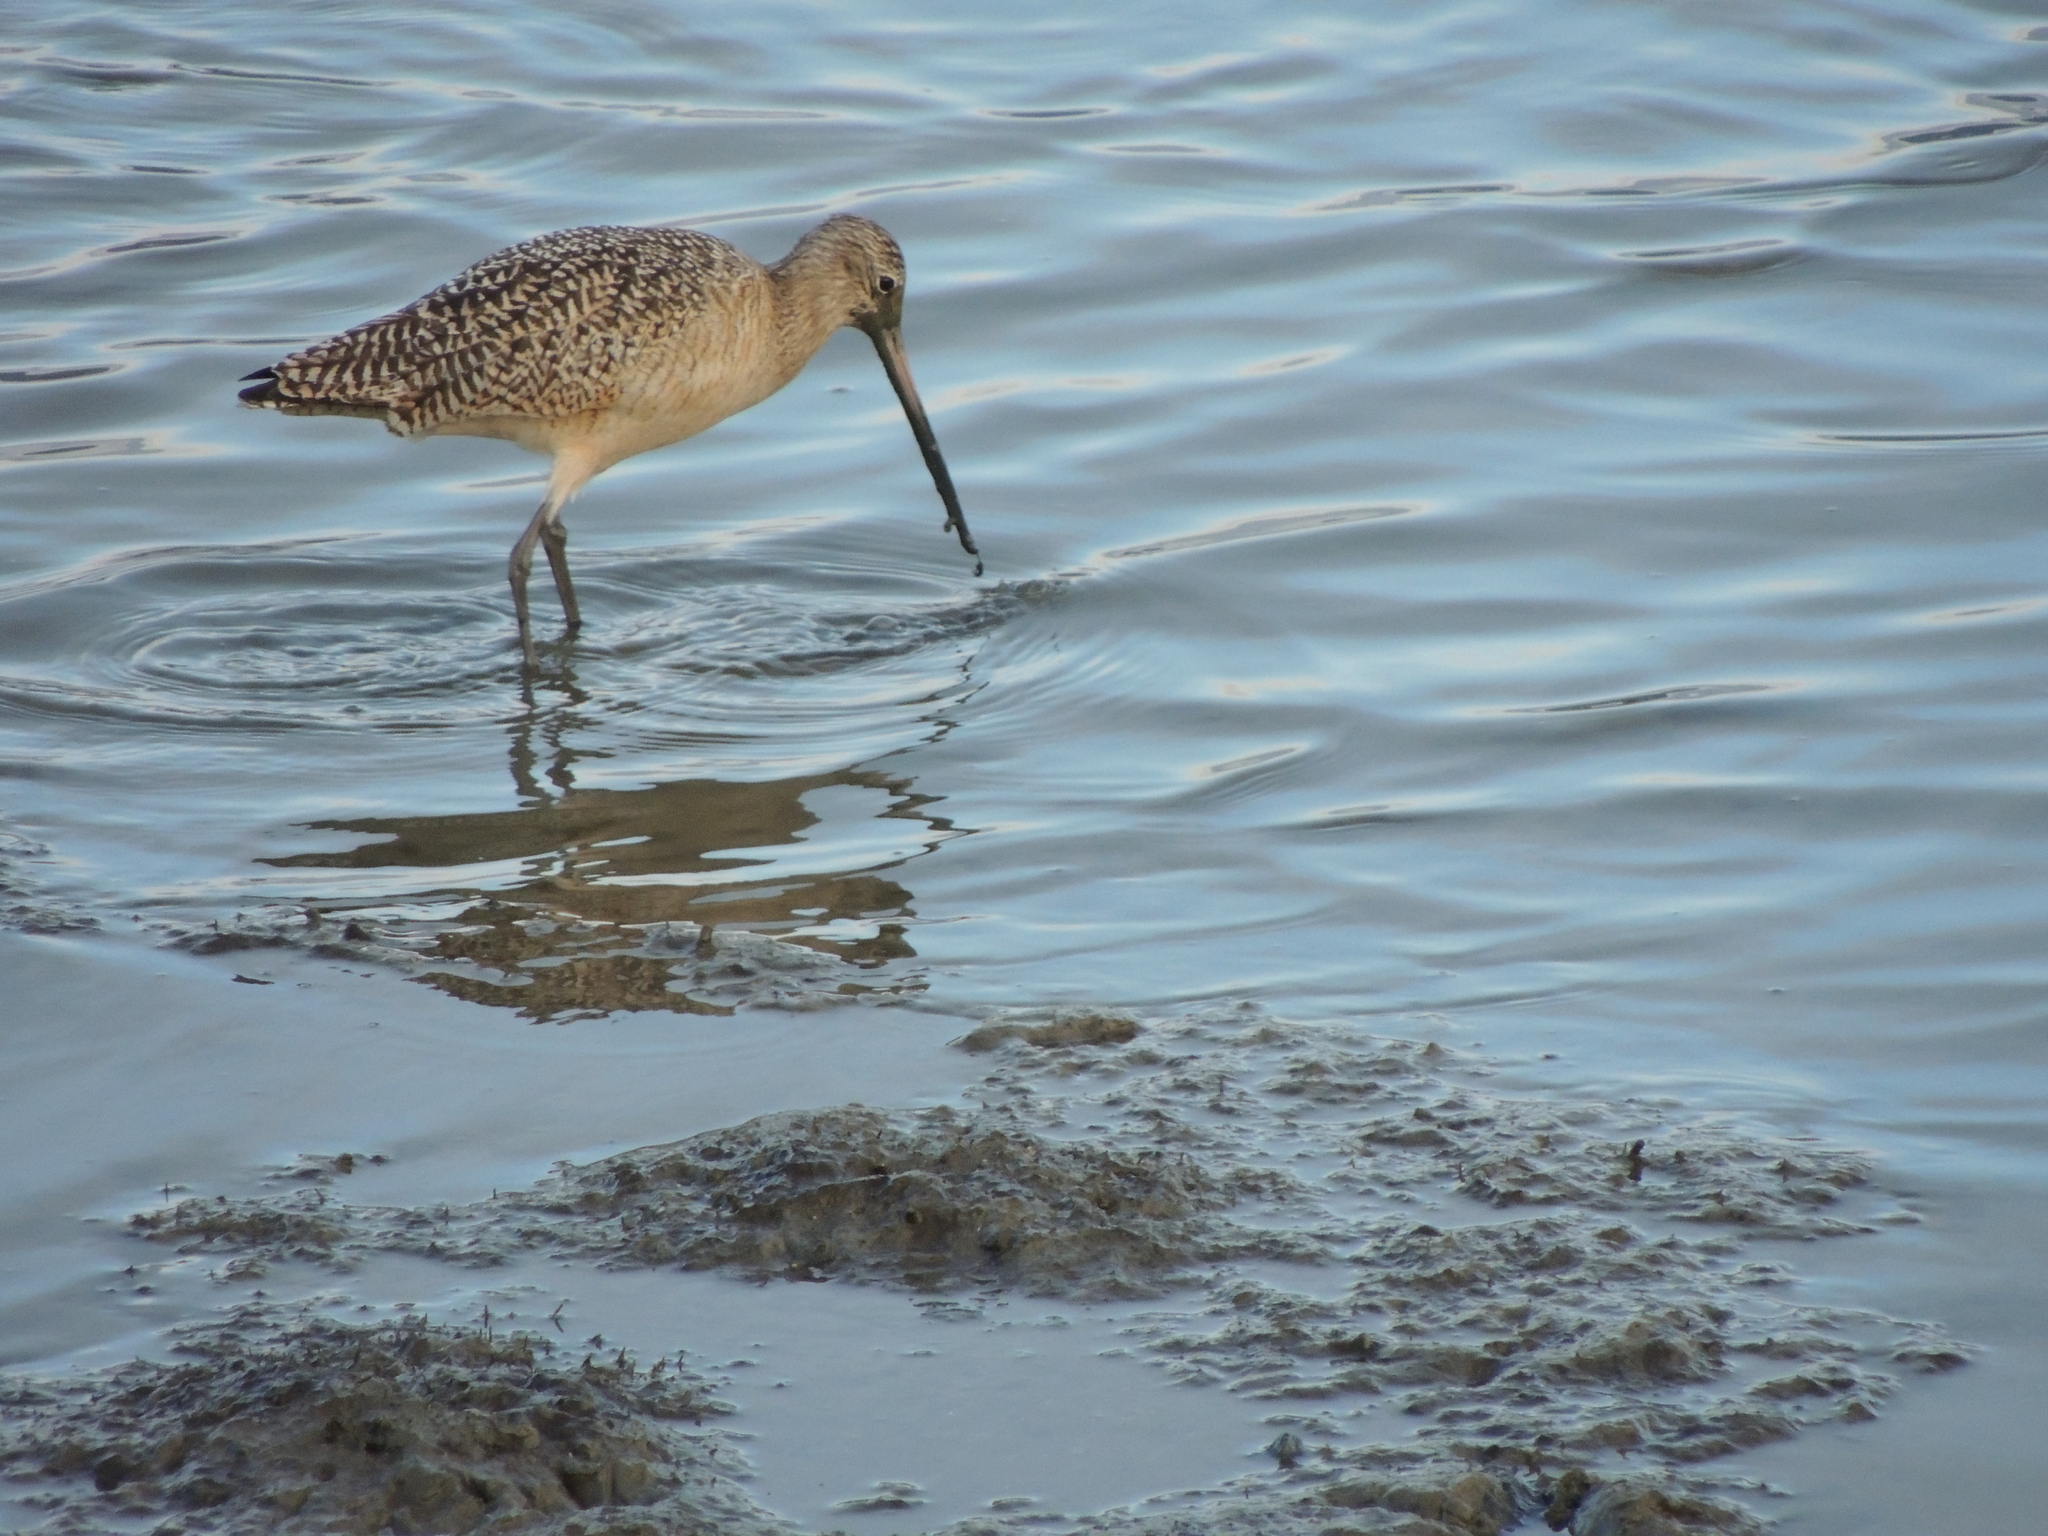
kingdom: Animalia
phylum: Chordata
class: Aves
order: Charadriiformes
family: Scolopacidae
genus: Limosa
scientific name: Limosa fedoa
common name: Marbled godwit
